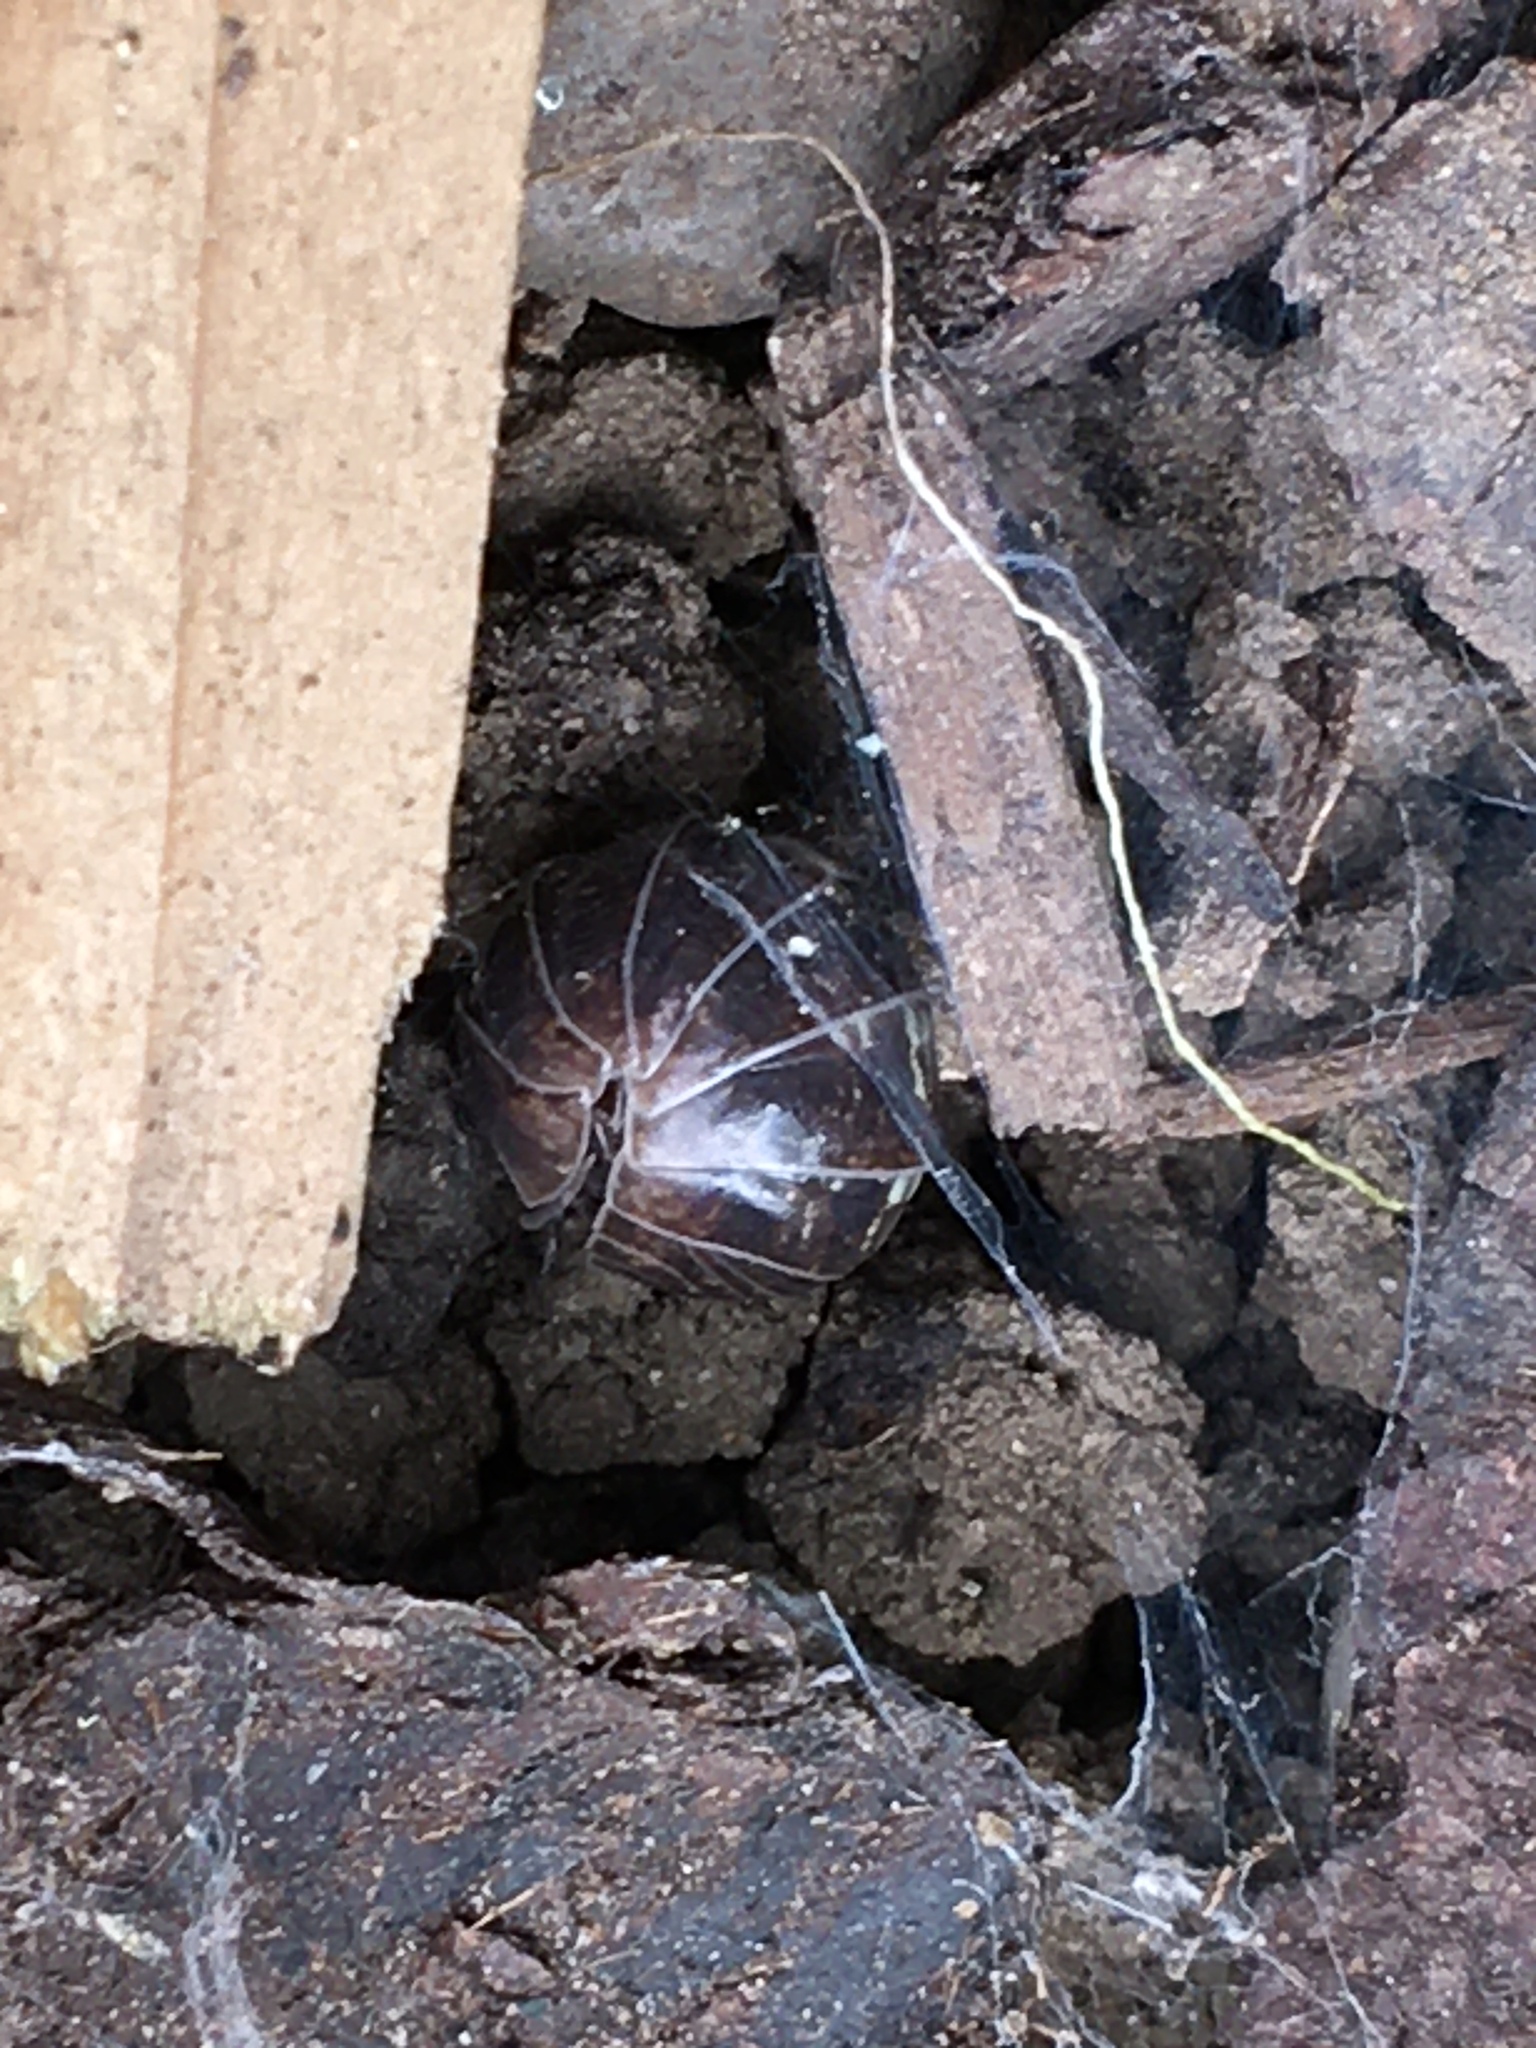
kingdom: Animalia
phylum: Arthropoda
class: Malacostraca
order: Isopoda
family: Armadillidiidae
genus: Armadillidium
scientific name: Armadillidium vulgare
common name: Common pill woodlouse
